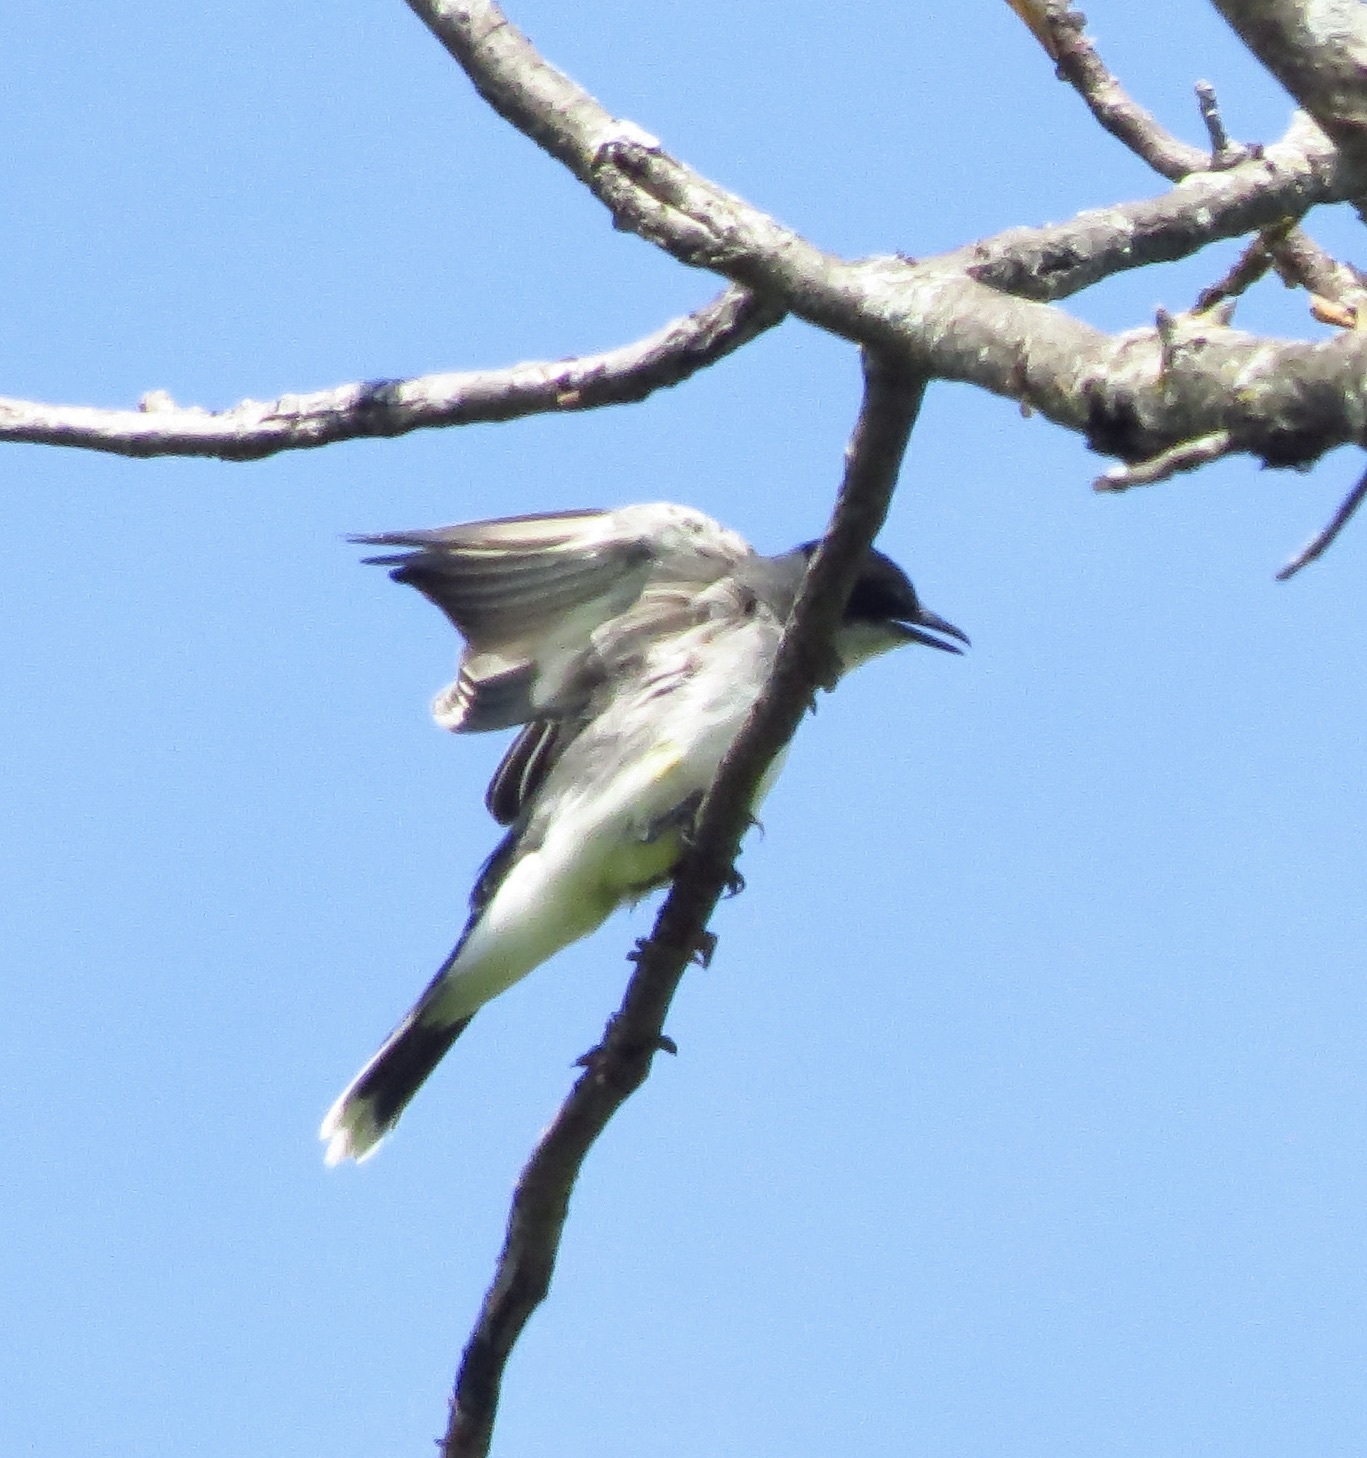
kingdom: Animalia
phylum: Chordata
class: Aves
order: Passeriformes
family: Tyrannidae
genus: Tyrannus
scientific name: Tyrannus tyrannus
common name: Eastern kingbird
